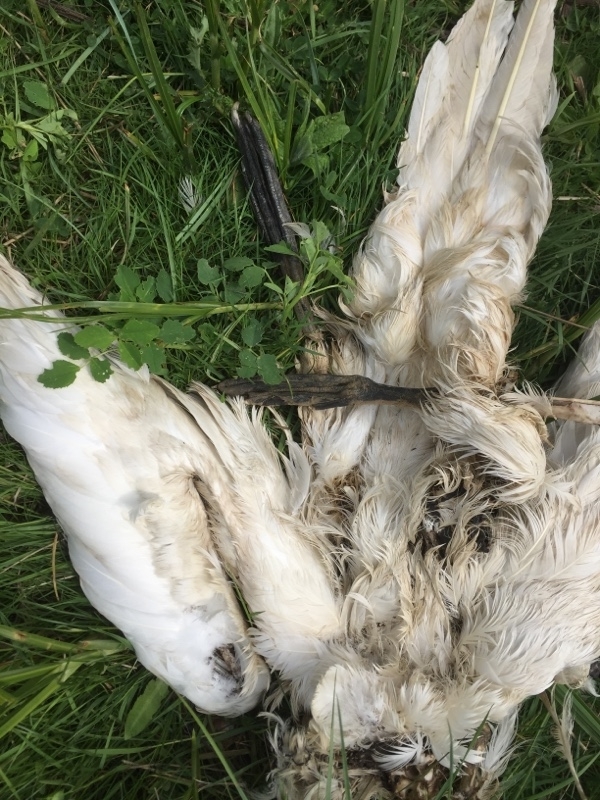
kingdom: Animalia
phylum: Chordata
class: Aves
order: Suliformes
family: Sulidae
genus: Morus
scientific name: Morus bassanus
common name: Northern gannet
